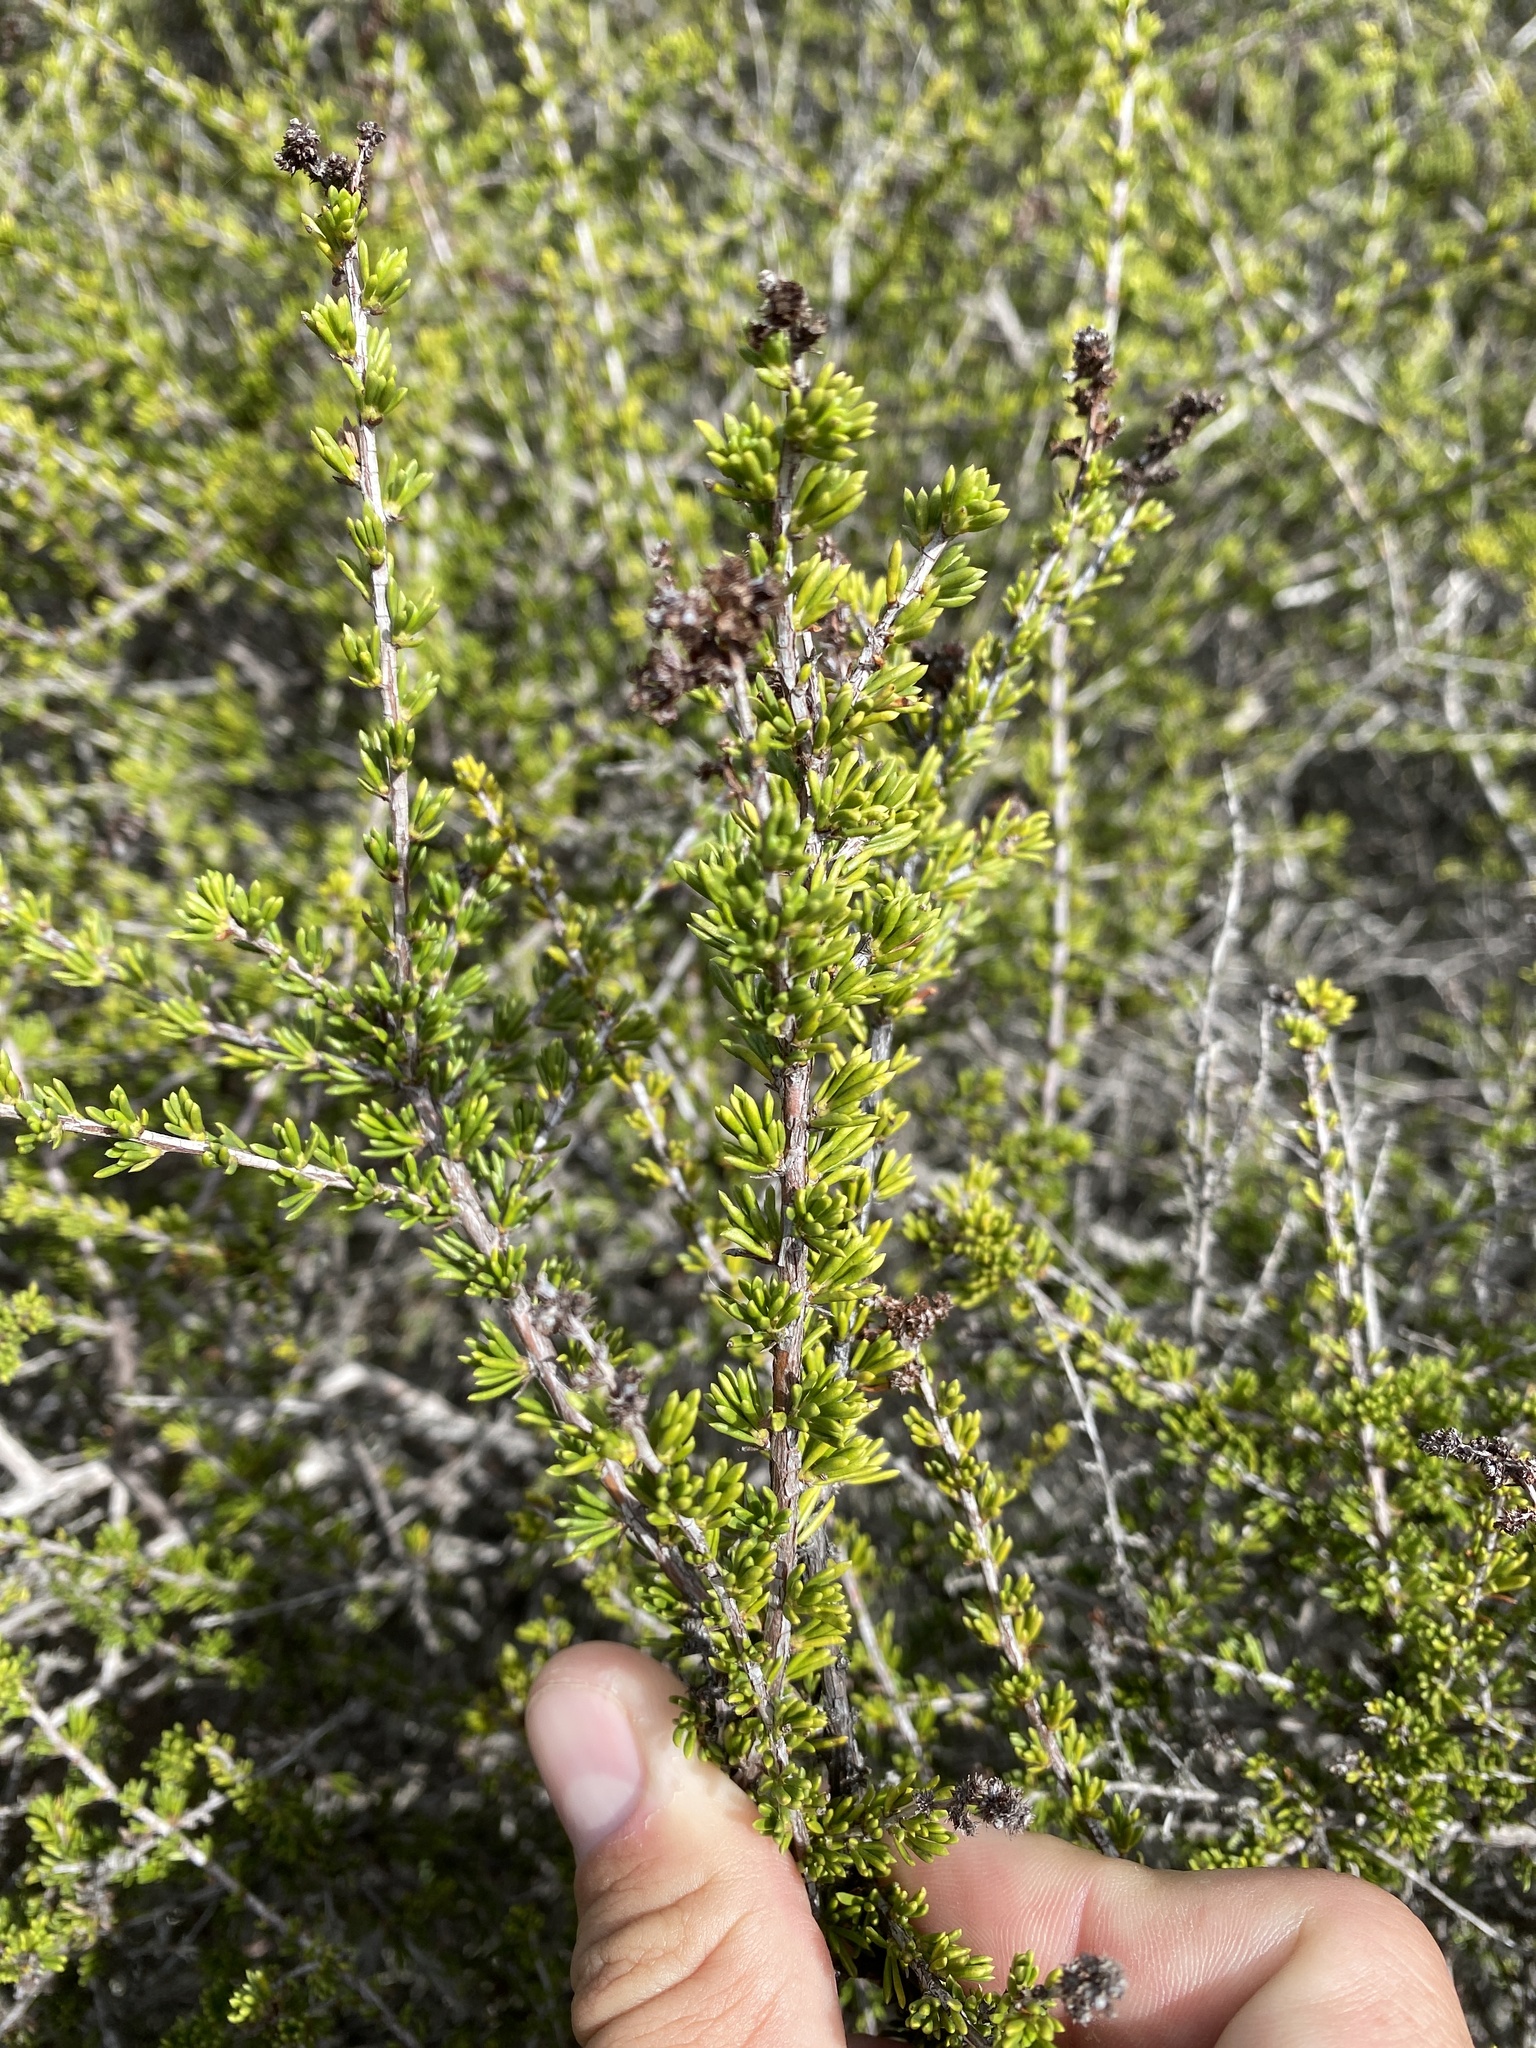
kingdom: Plantae
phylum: Tracheophyta
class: Magnoliopsida
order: Rosales
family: Rosaceae
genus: Adenostoma
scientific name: Adenostoma fasciculatum
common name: Chamise
